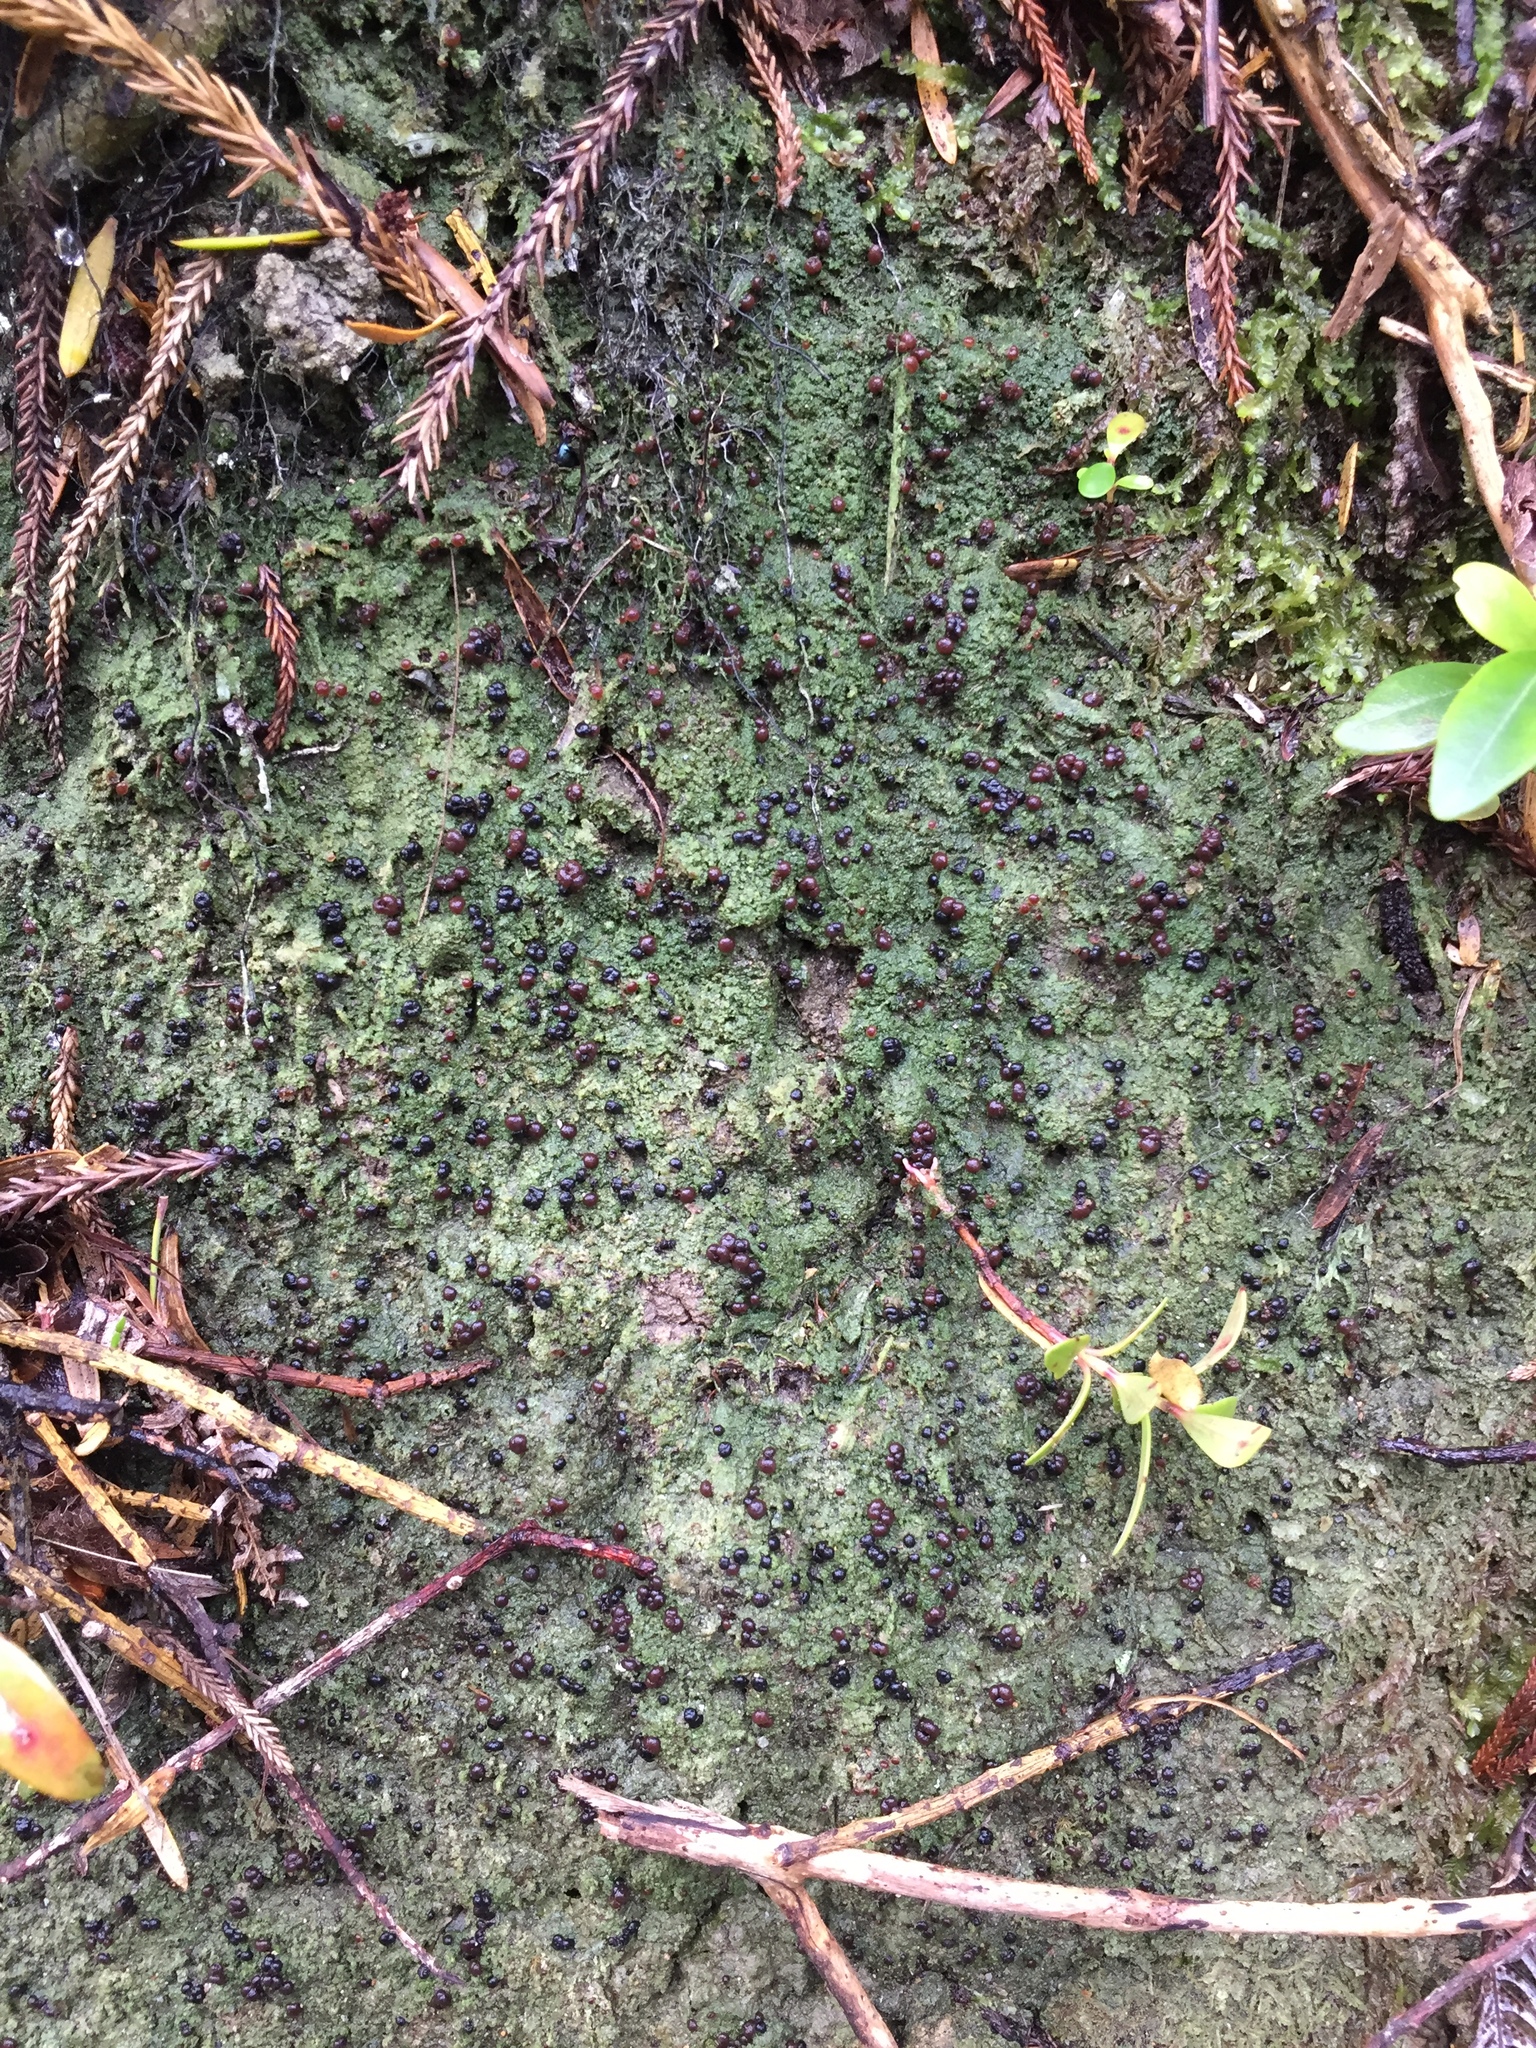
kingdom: Fungi
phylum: Ascomycota
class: Lecanoromycetes
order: Lecanorales
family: Byssolomataceae
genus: Micarea
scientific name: Micarea prasina
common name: Green dot lichen
